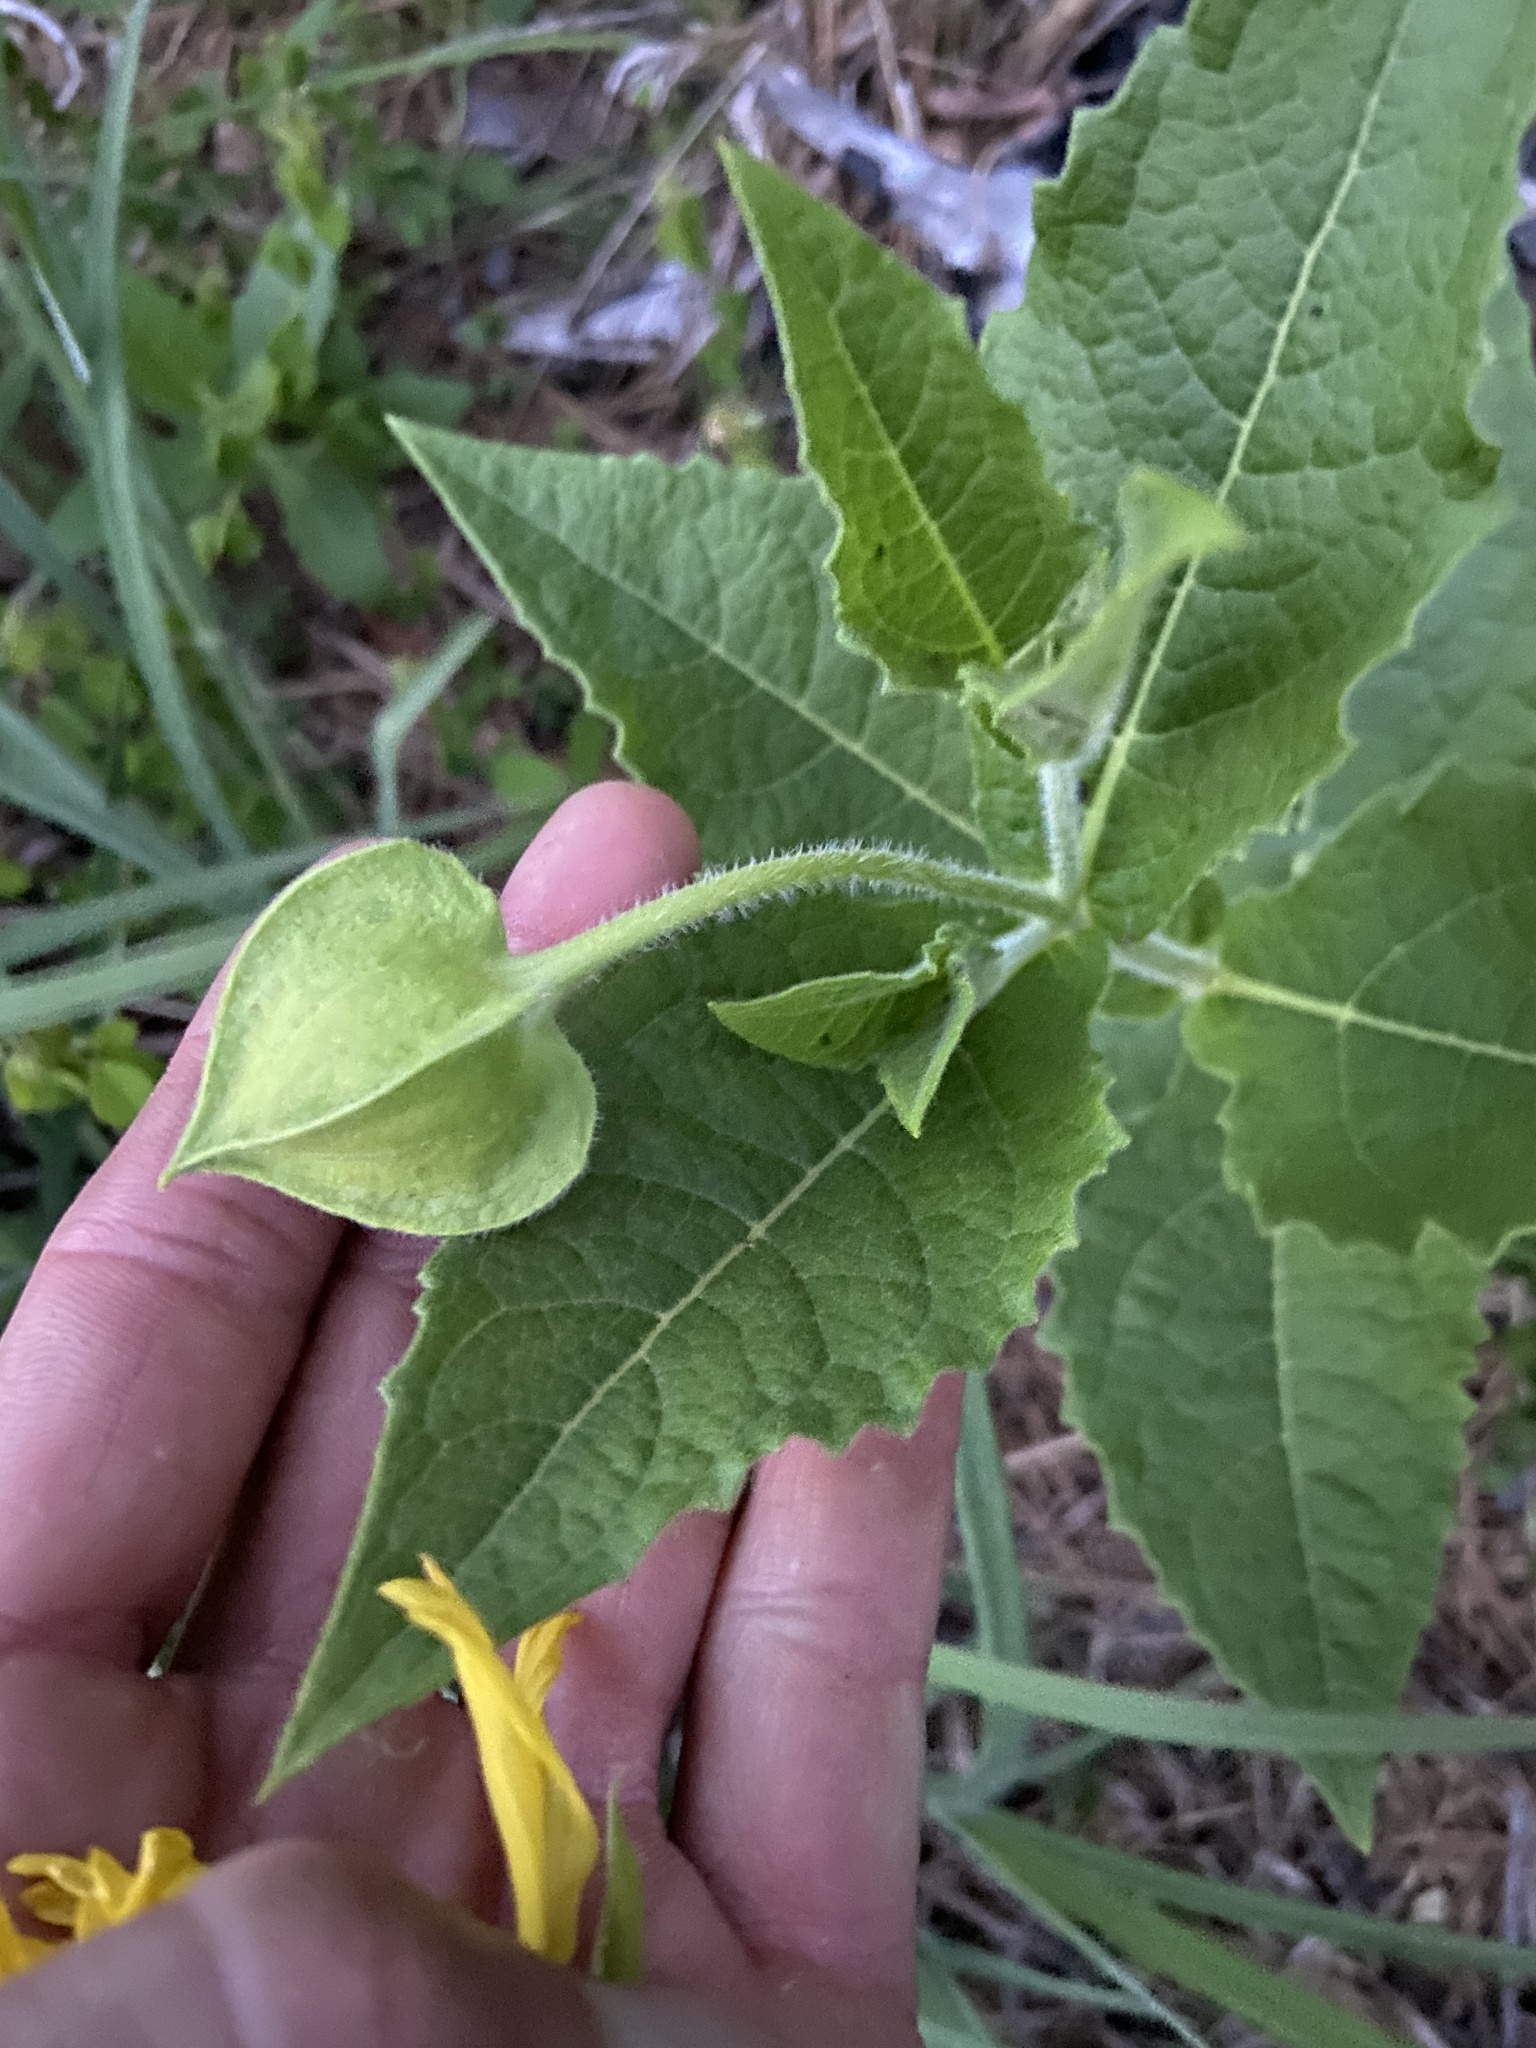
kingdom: Plantae
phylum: Tracheophyta
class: Magnoliopsida
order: Asterales
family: Asteraceae
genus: Tetragonotheca
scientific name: Tetragonotheca helianthoides
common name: Pineland-ginseng
